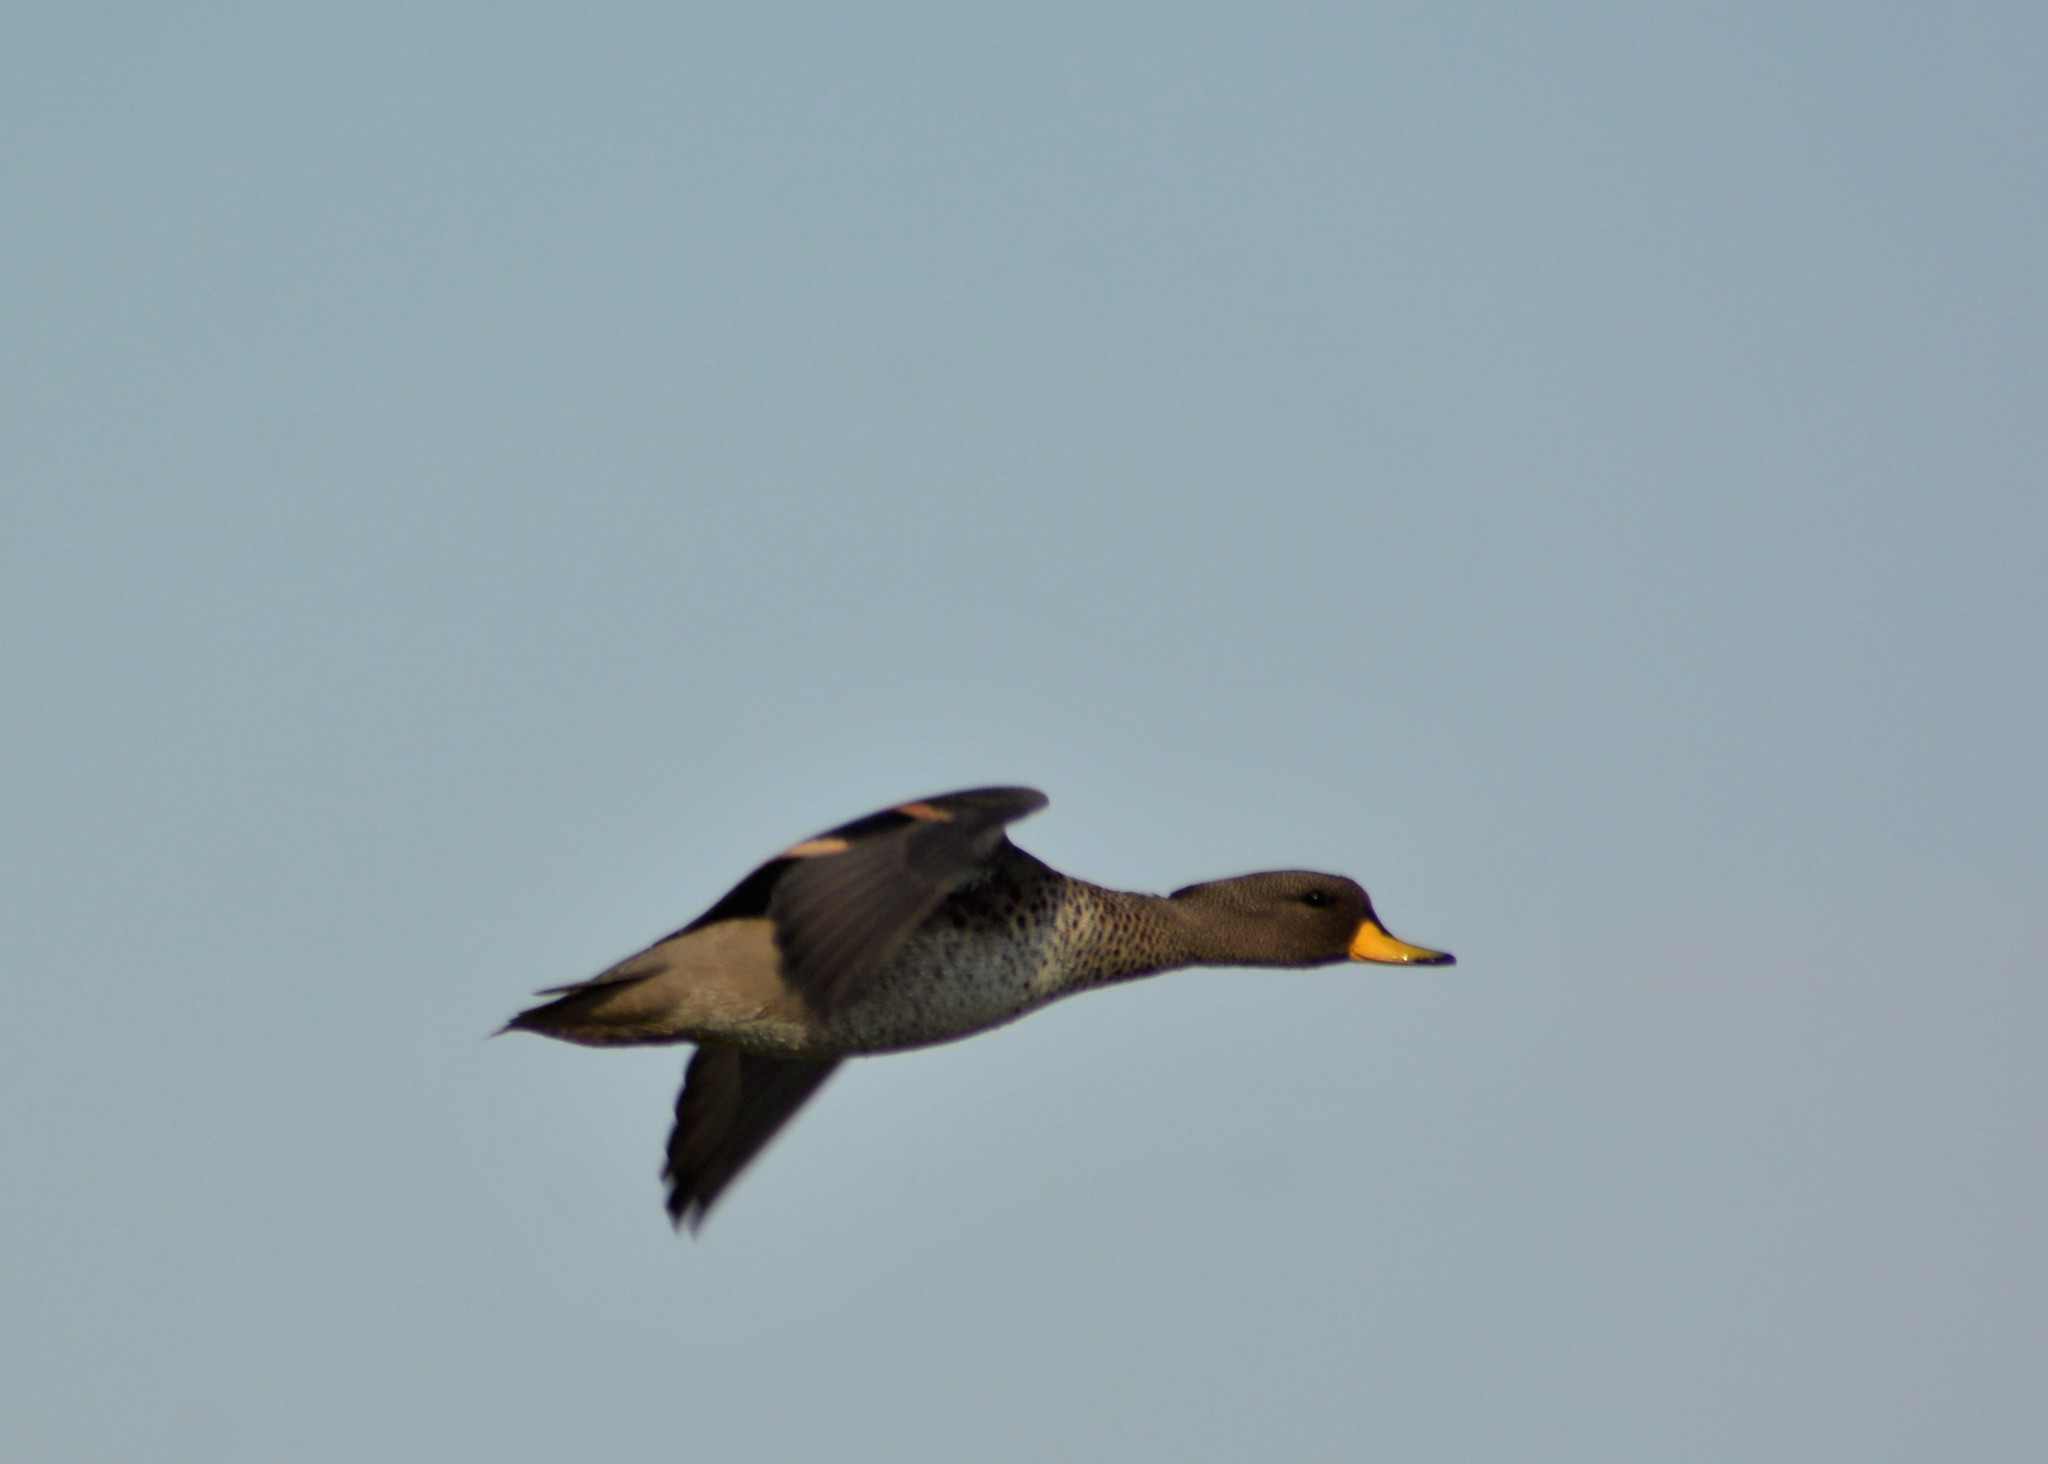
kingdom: Animalia
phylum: Chordata
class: Aves
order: Anseriformes
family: Anatidae
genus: Anas
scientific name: Anas flavirostris
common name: Yellow-billed teal
